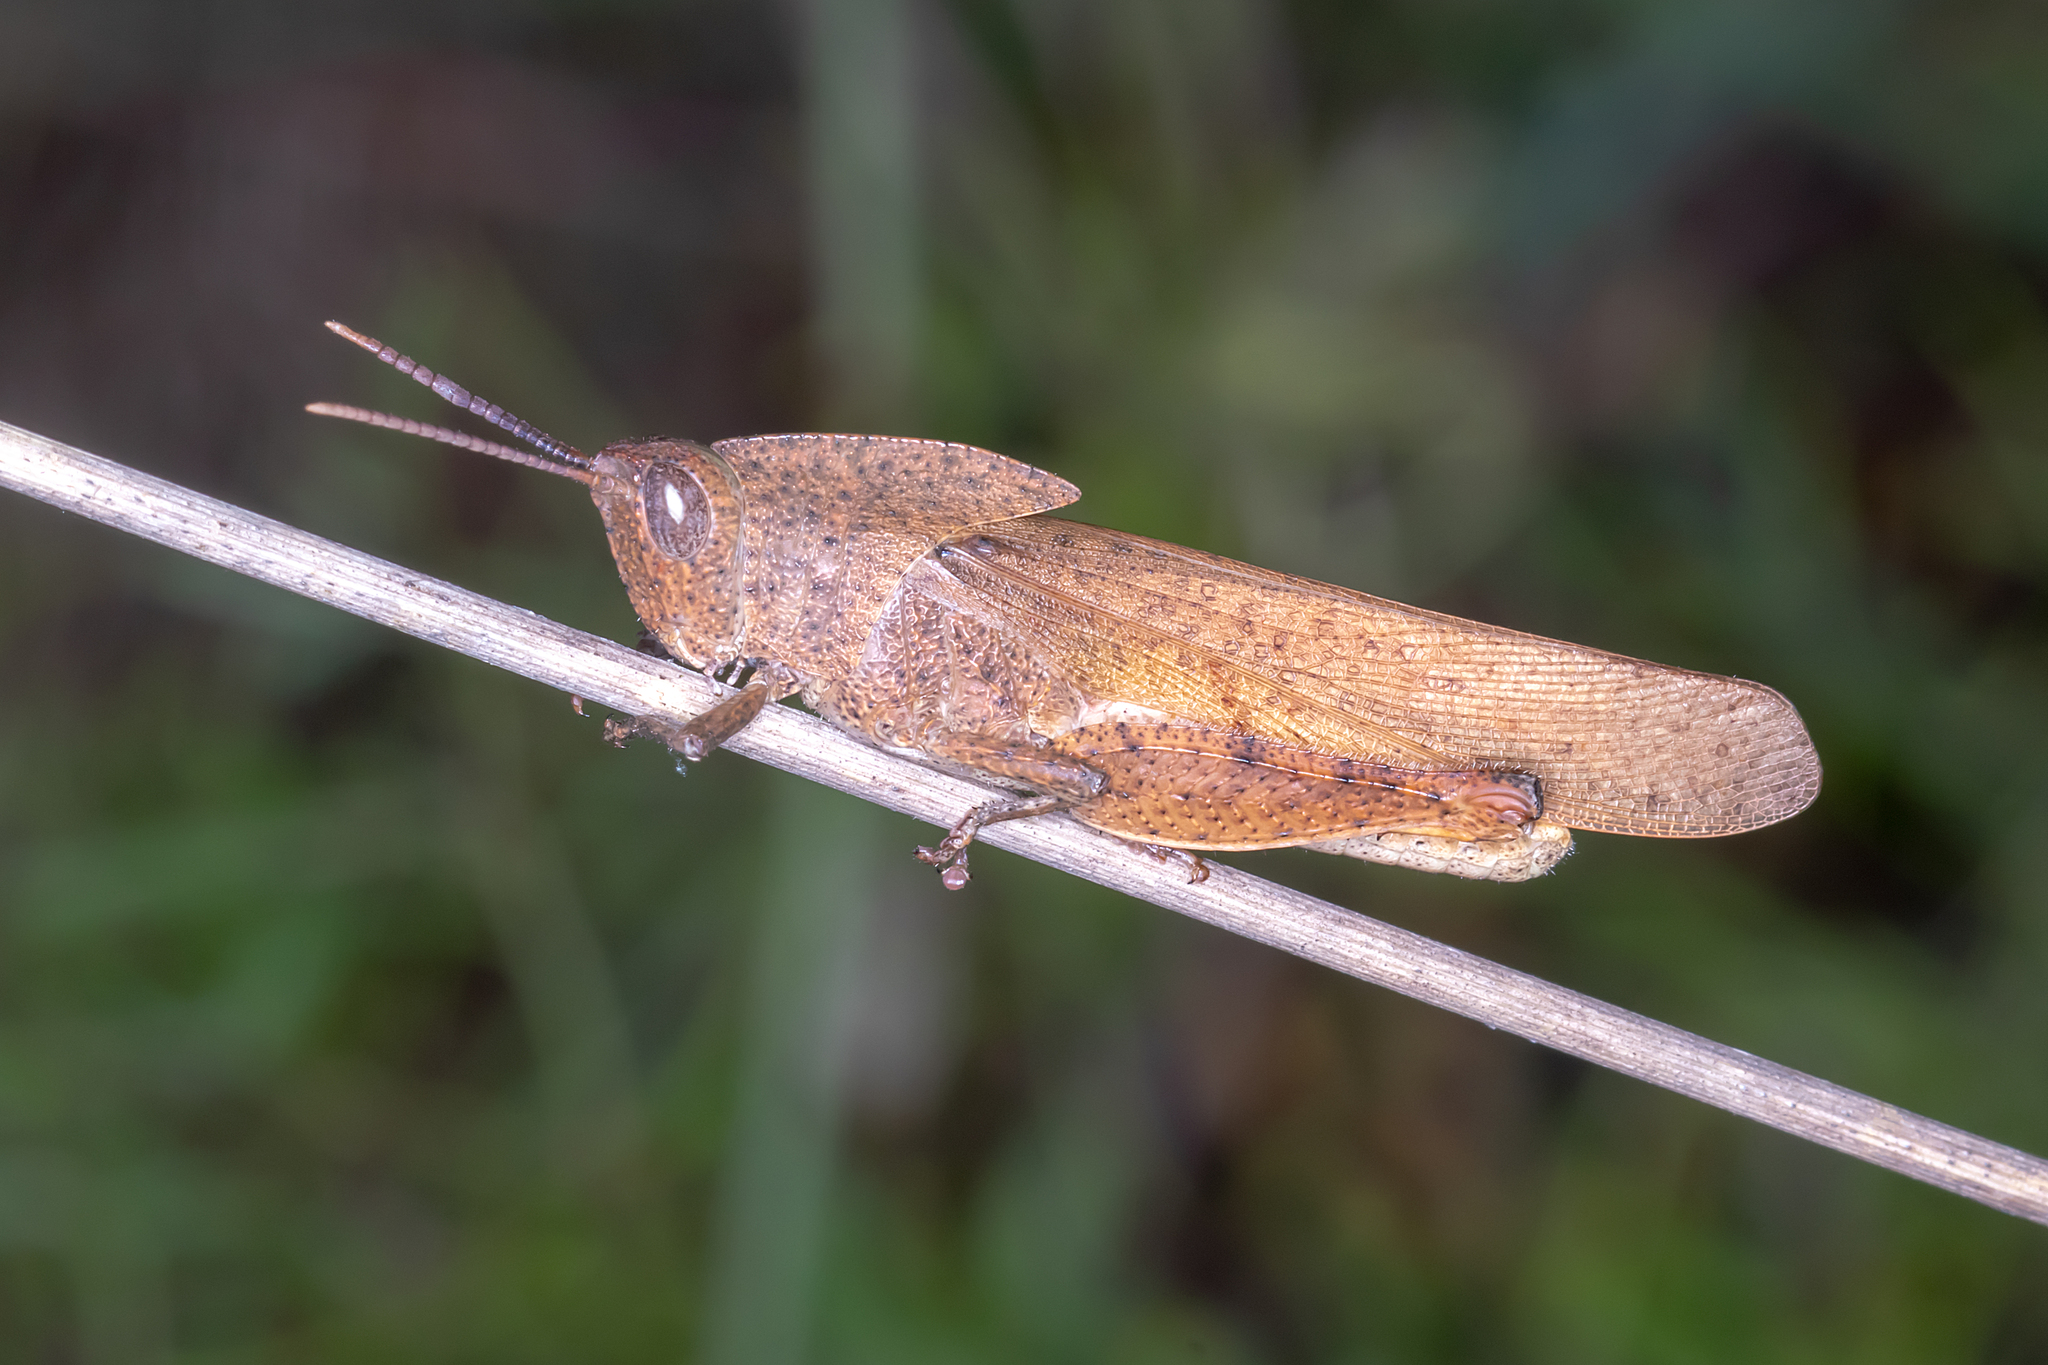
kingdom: Animalia
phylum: Arthropoda
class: Insecta
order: Orthoptera
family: Acrididae
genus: Goniaea
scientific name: Goniaea australasiae
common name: Gumleaf grasshopper
